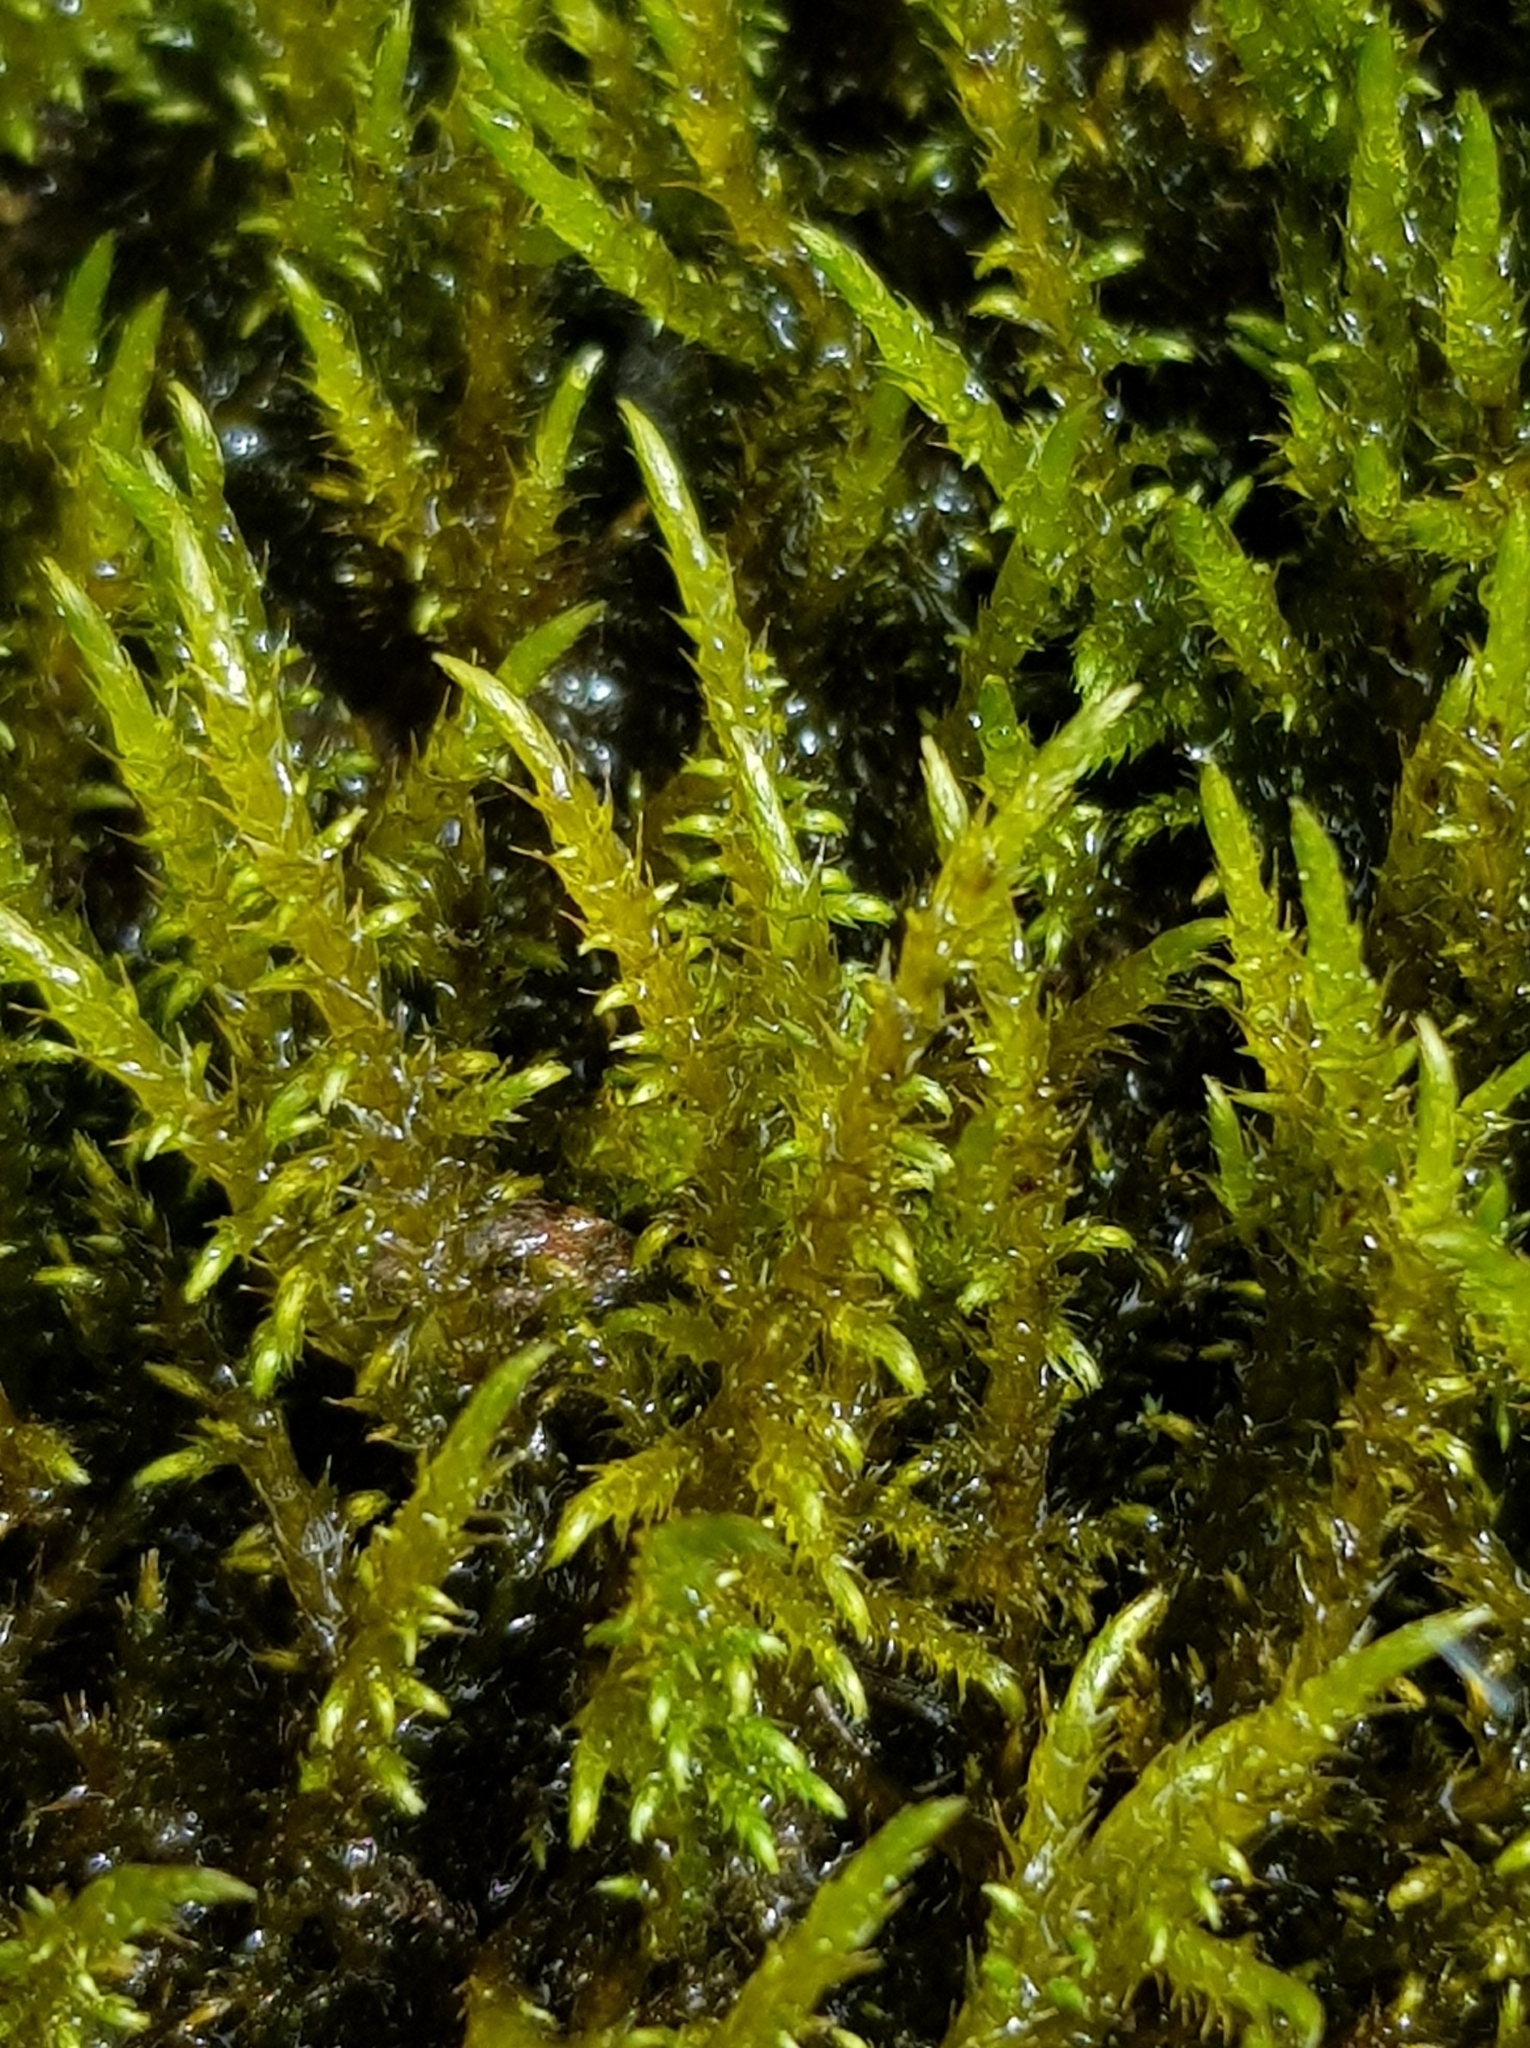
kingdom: Plantae
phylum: Bryophyta
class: Bryopsida
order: Hypnales
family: Amblystegiaceae
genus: Cratoneuron
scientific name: Cratoneuron filicinum
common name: Fern-leaved hook moss
